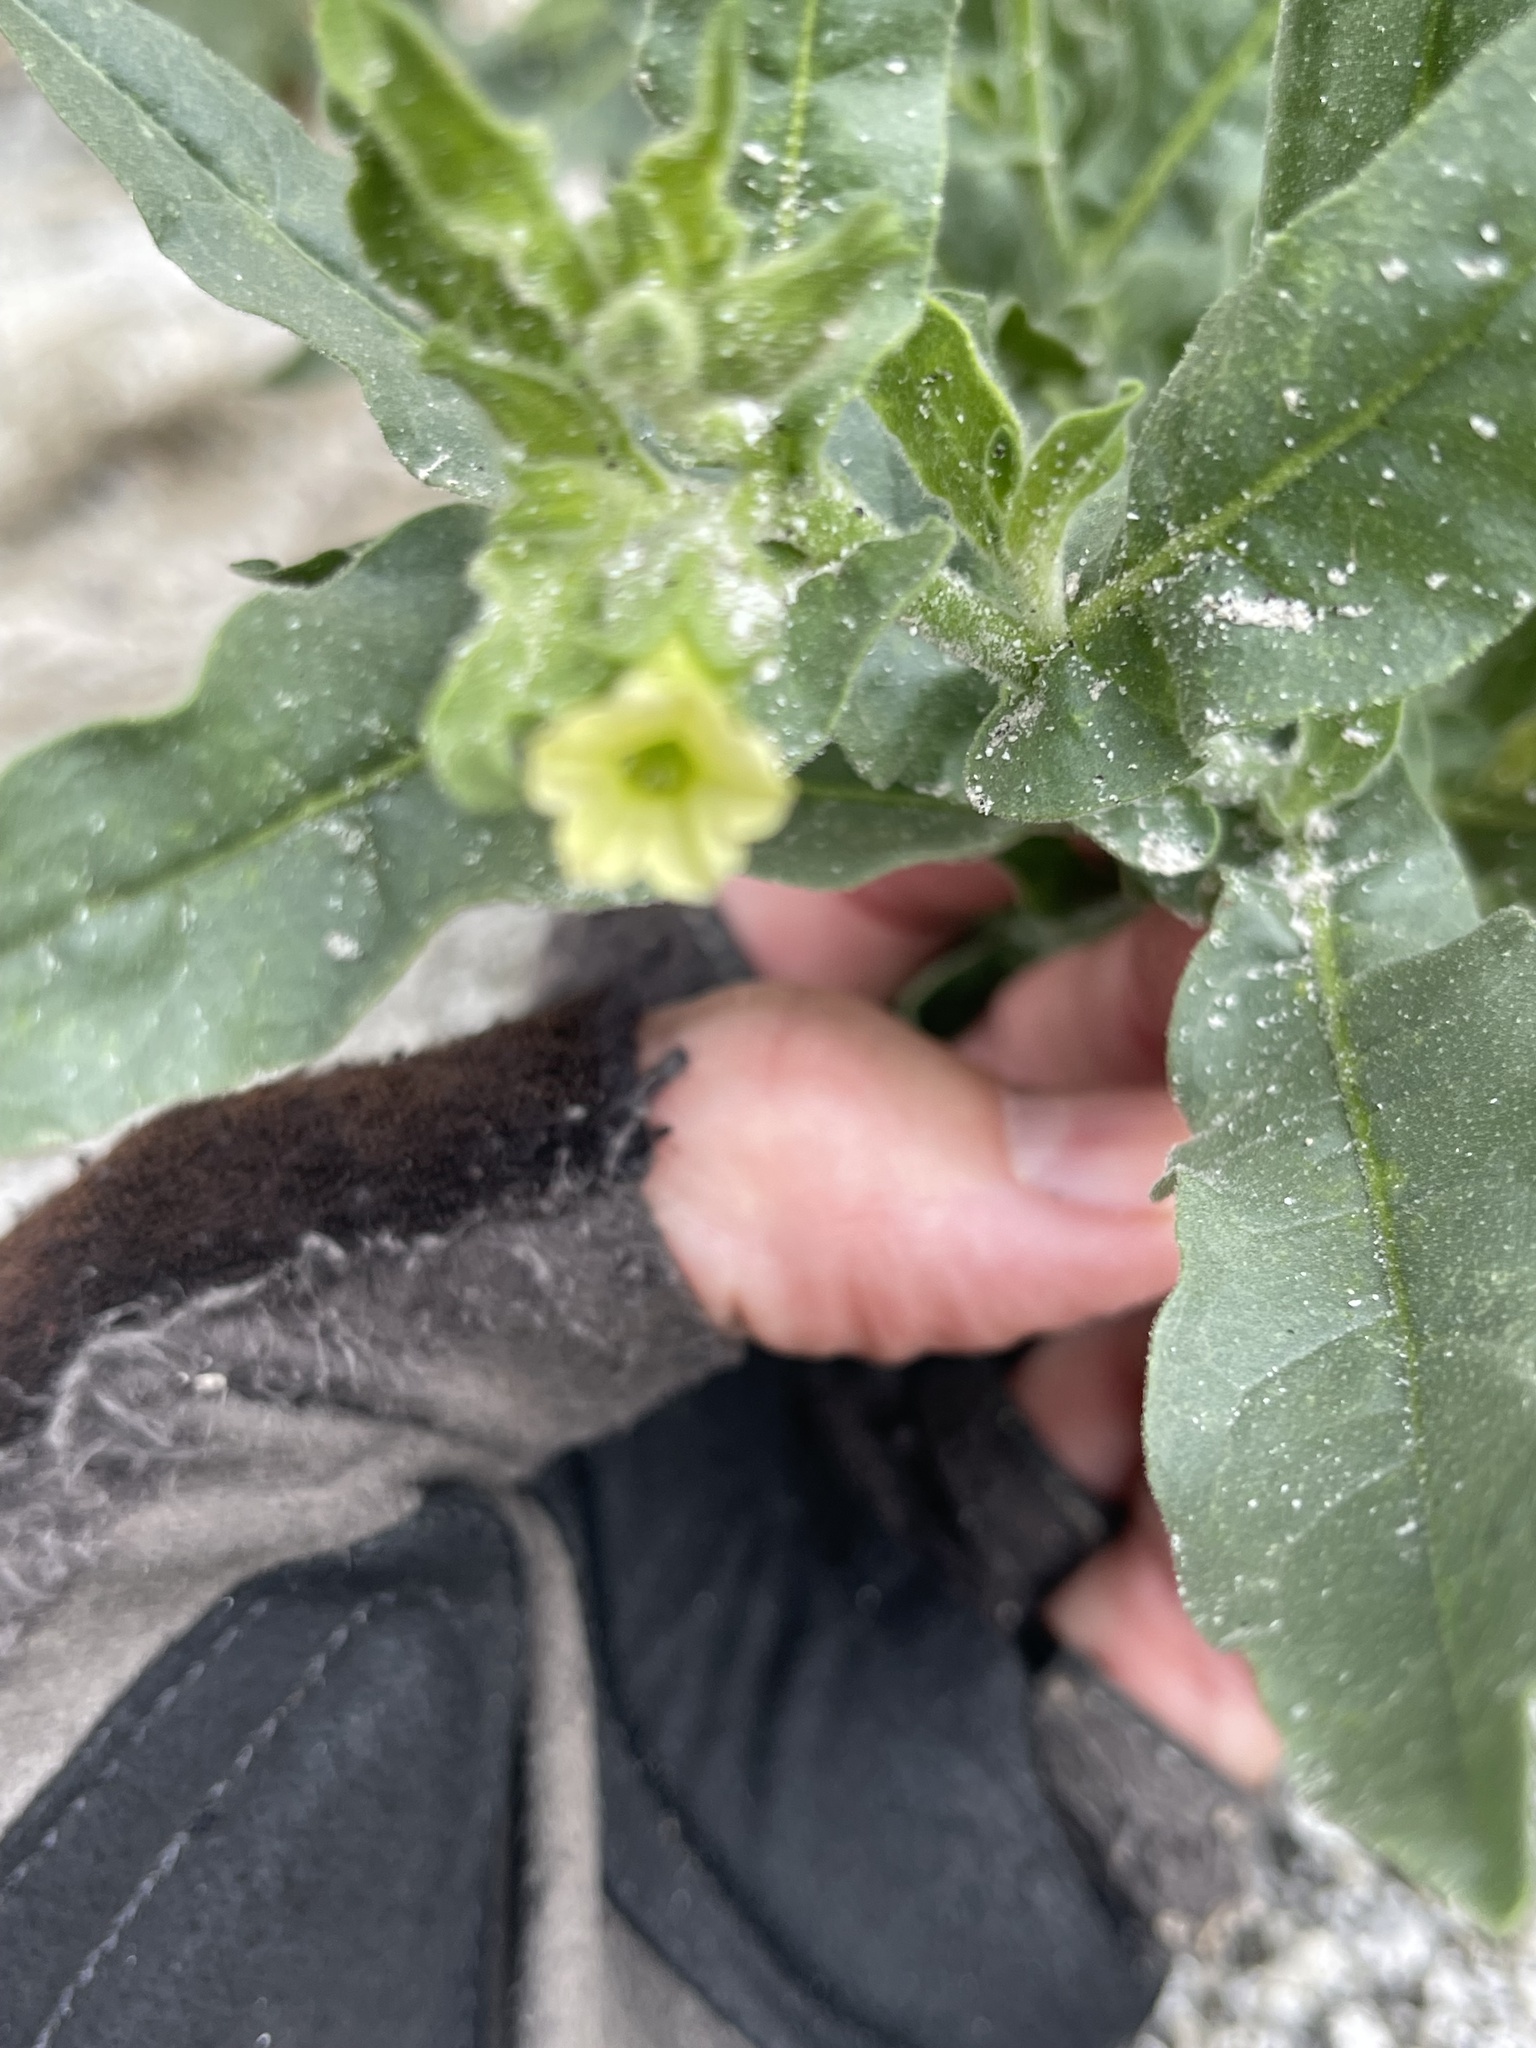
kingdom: Plantae
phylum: Tracheophyta
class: Magnoliopsida
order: Solanales
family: Solanaceae
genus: Nicotiana
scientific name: Nicotiana obtusifolia
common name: Desert tobacco
